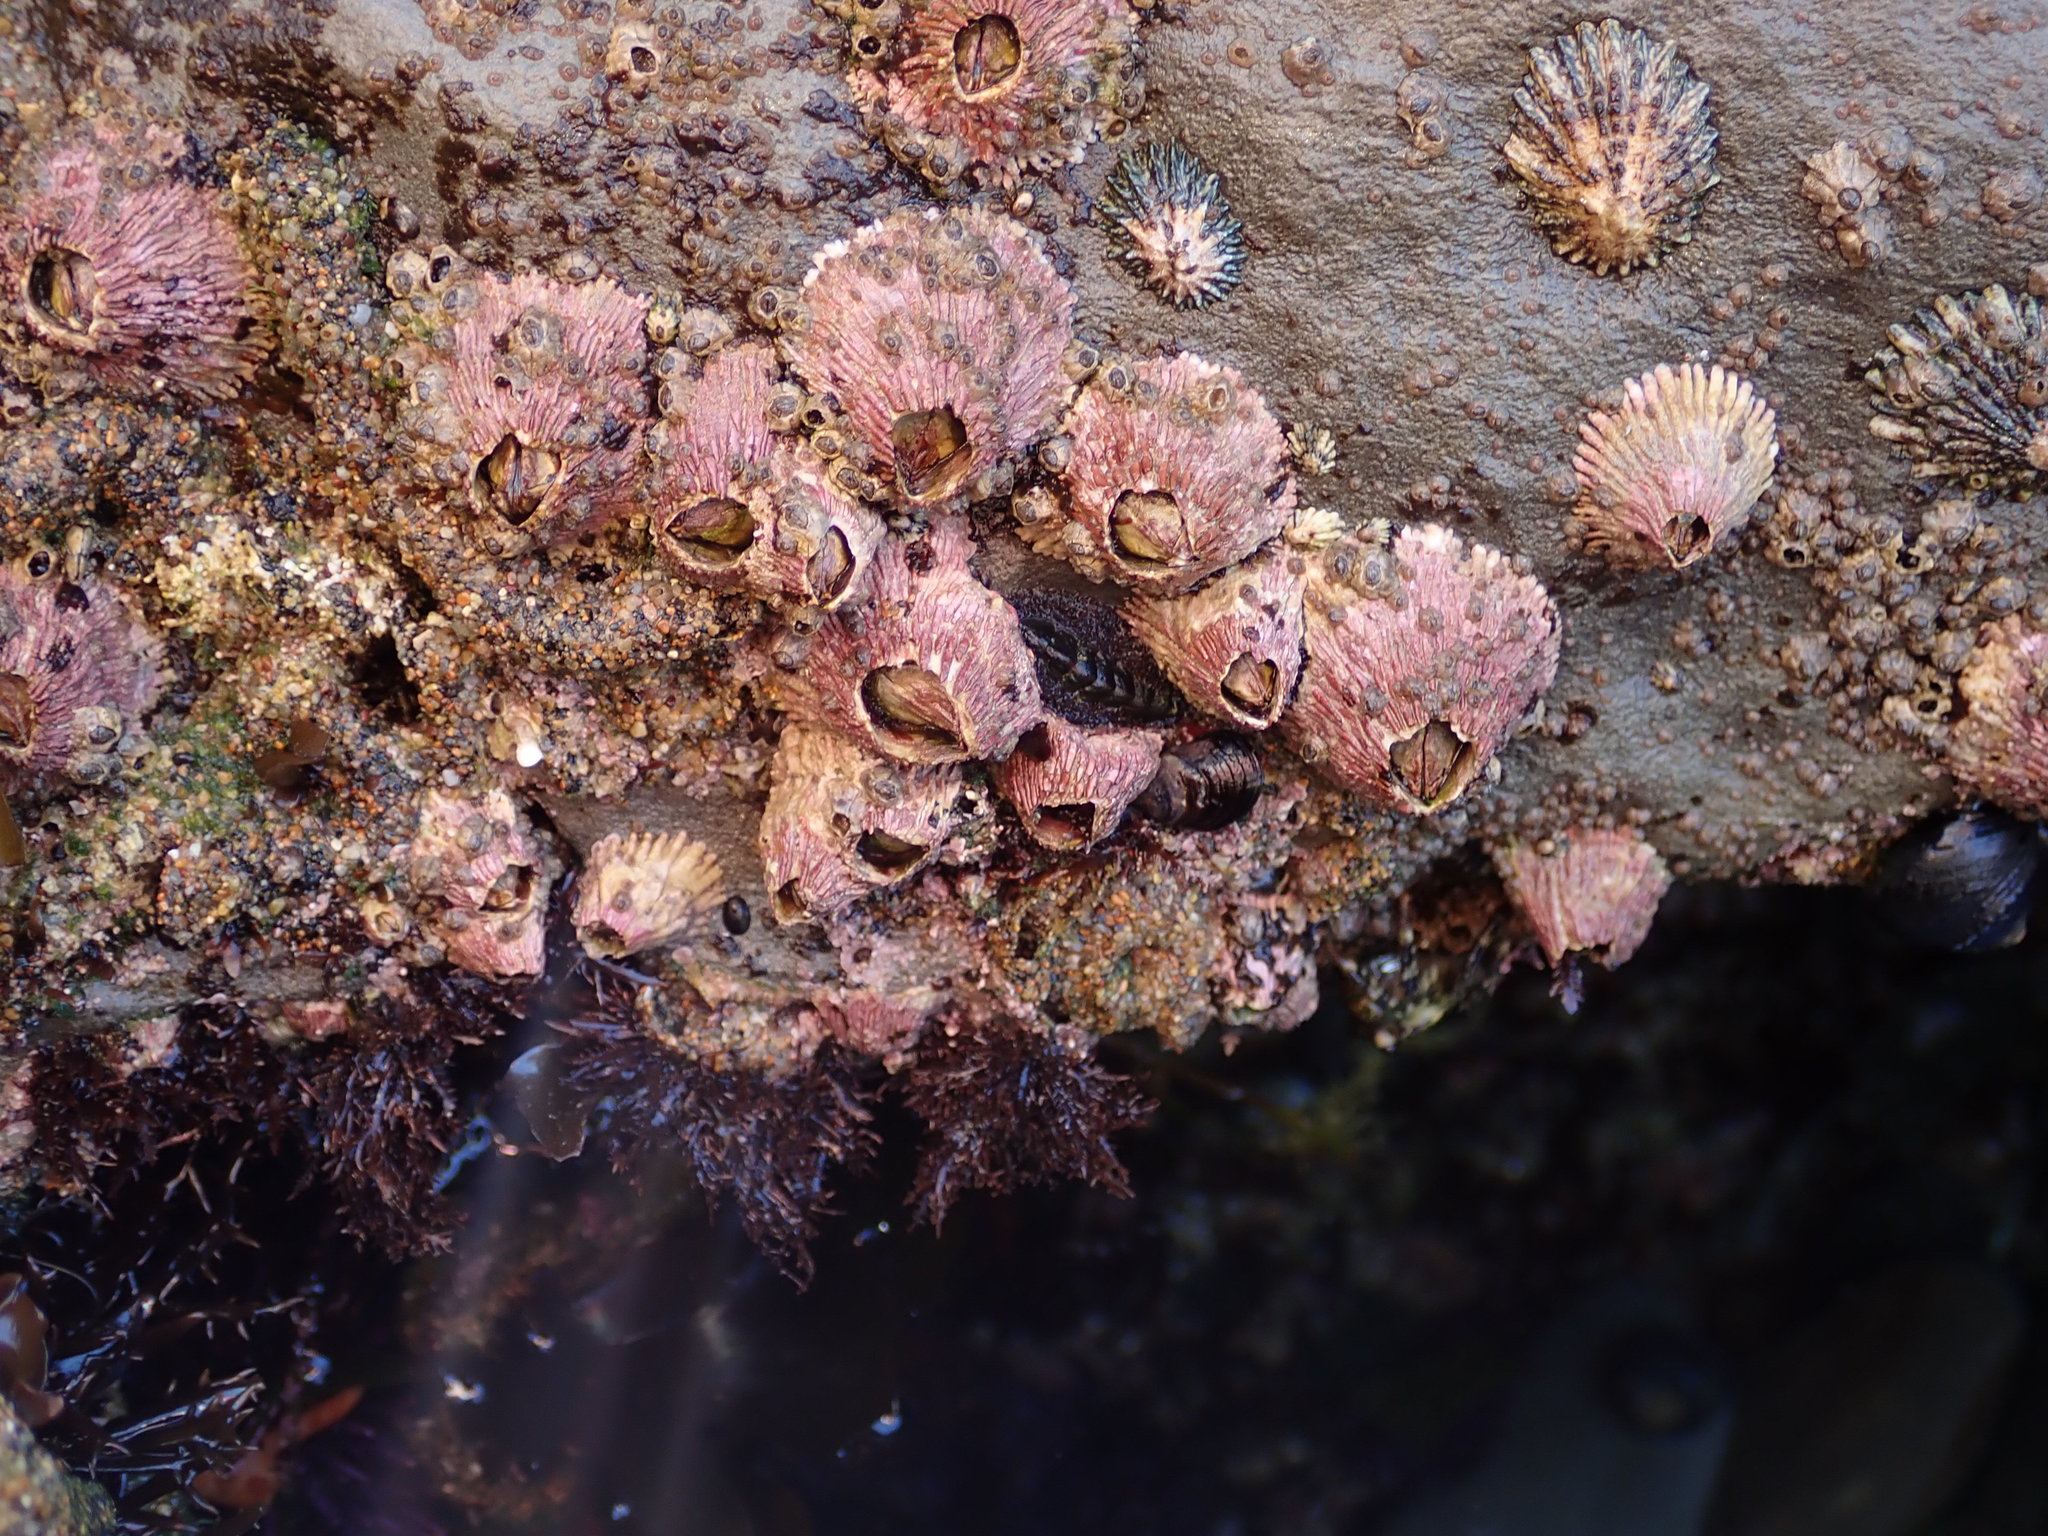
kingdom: Animalia
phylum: Arthropoda
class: Maxillopoda
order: Sessilia
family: Tetraclitidae
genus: Tetraclita
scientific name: Tetraclita rubescens
